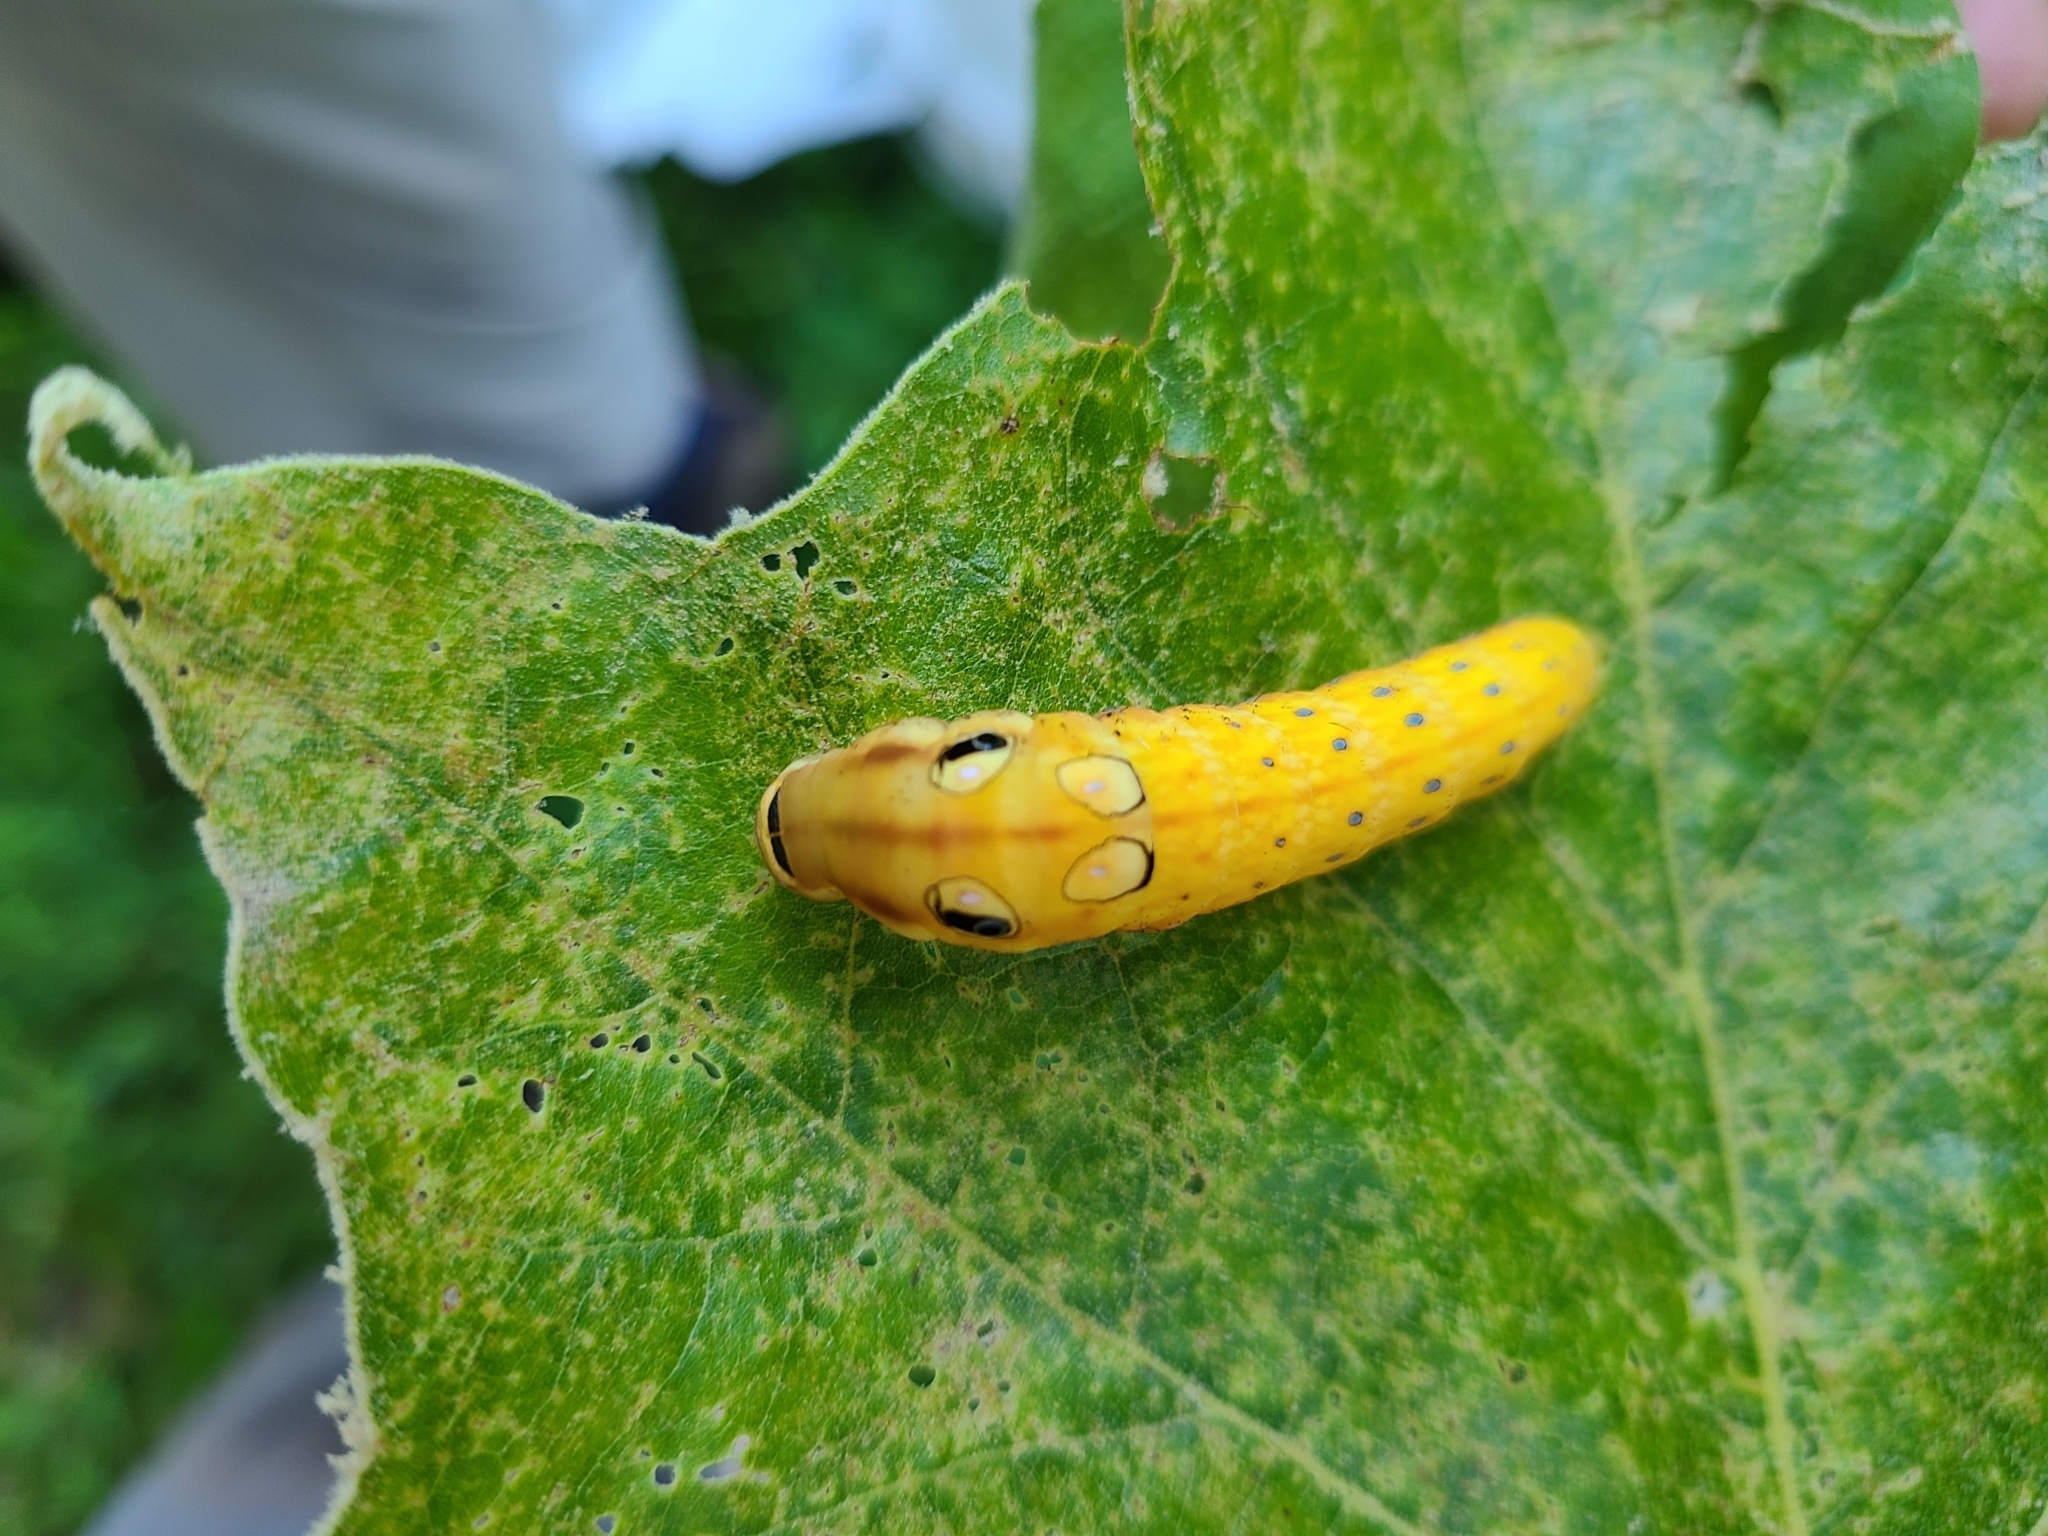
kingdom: Animalia
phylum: Arthropoda
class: Insecta
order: Lepidoptera
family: Papilionidae
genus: Papilio
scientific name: Papilio troilus
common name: Spicebush swallowtail
